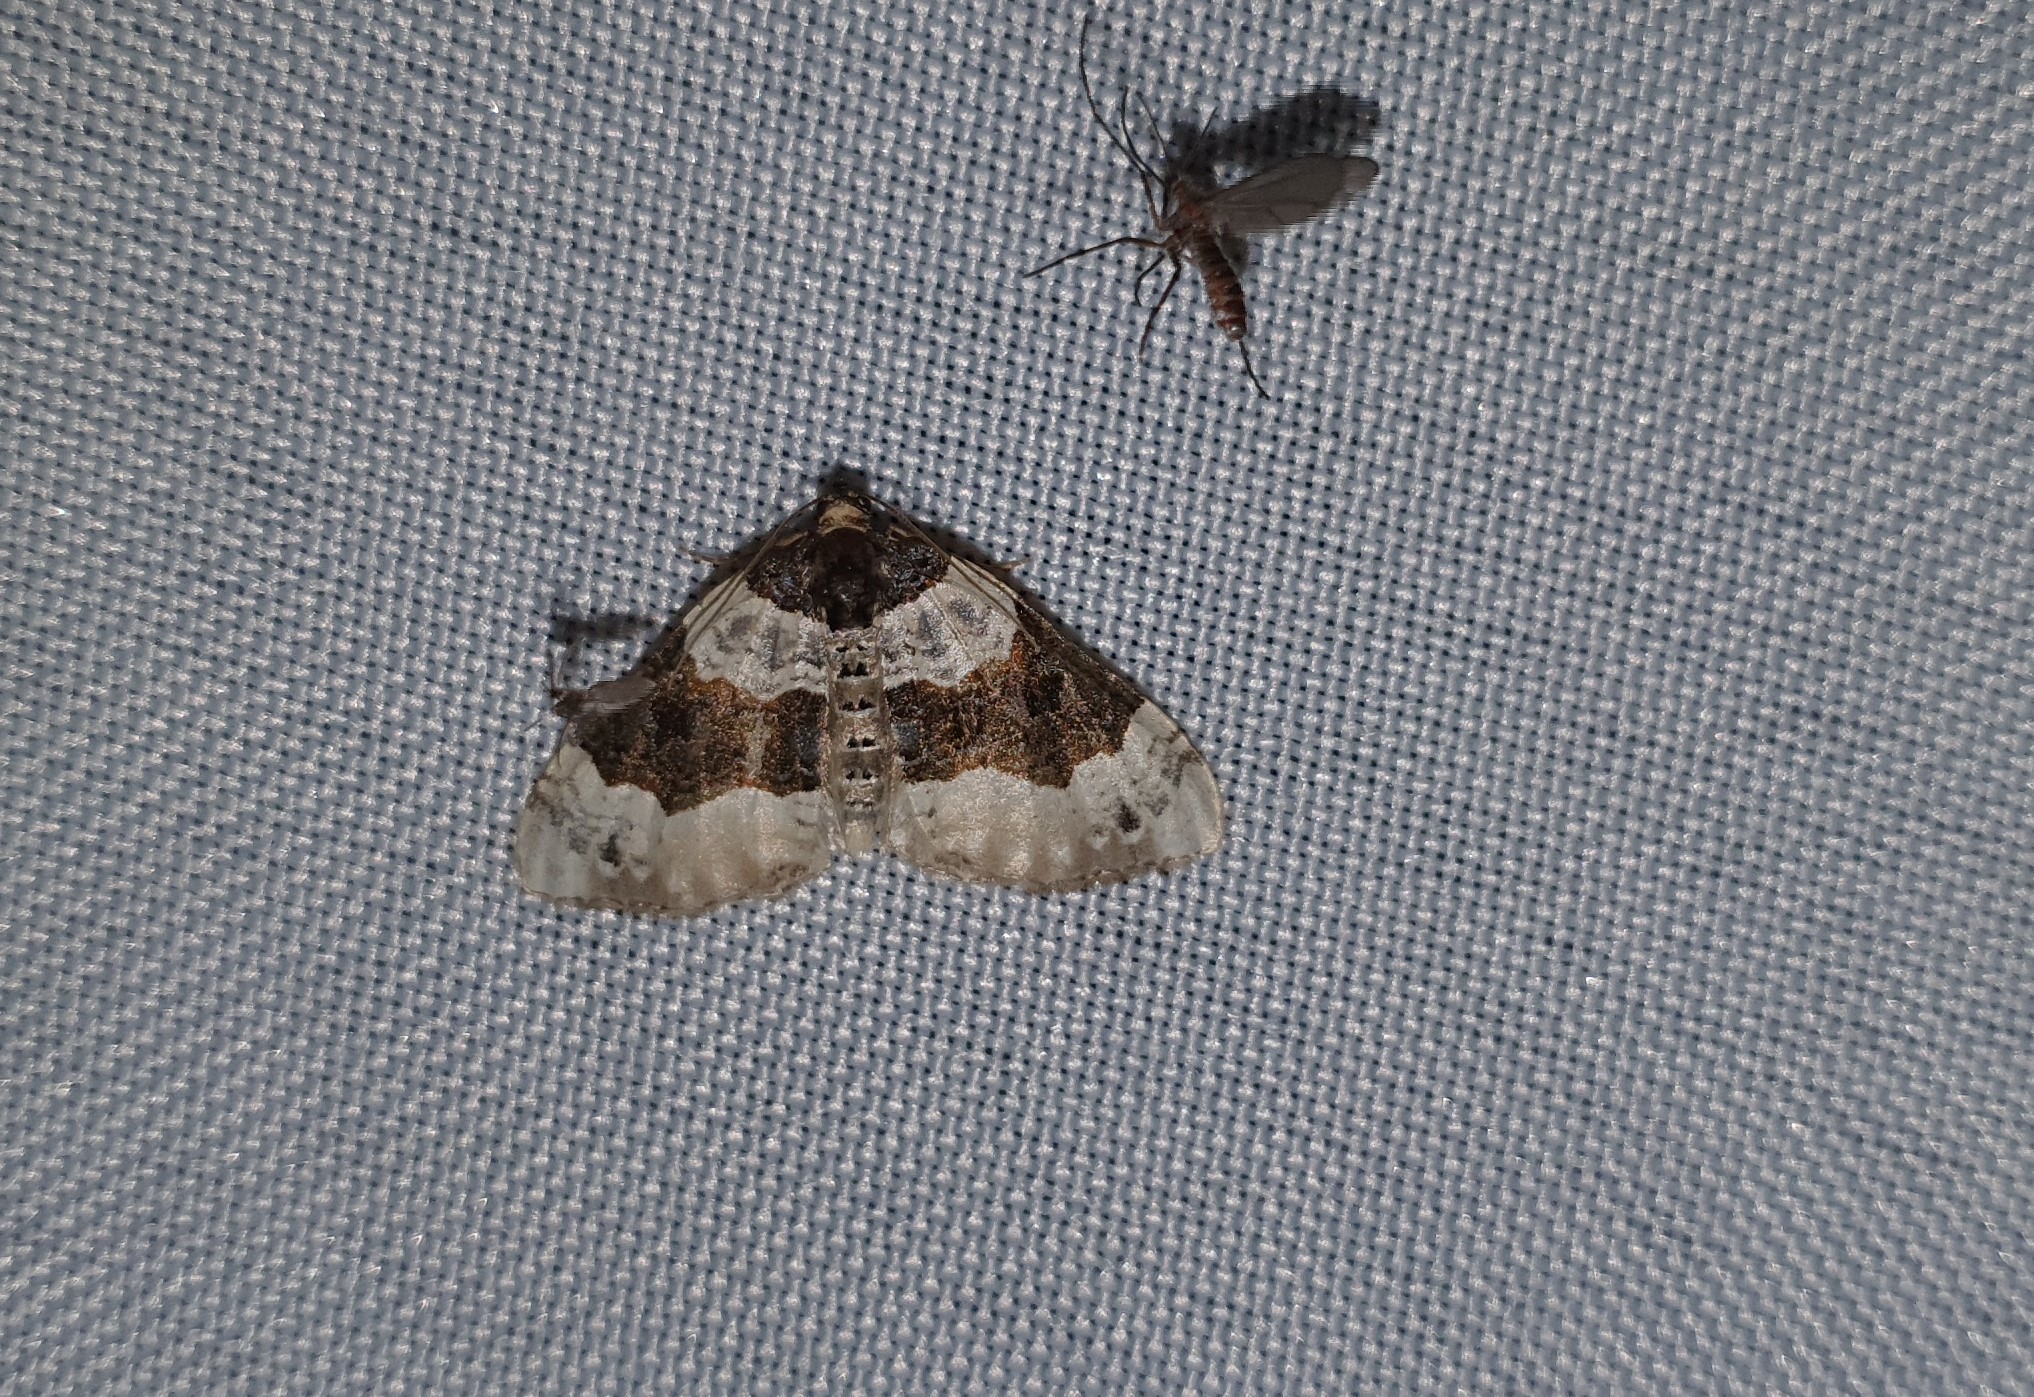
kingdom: Animalia
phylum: Arthropoda
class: Insecta
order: Lepidoptera
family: Geometridae
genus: Cosmorhoe
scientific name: Cosmorhoe ocellata
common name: Purple bar
